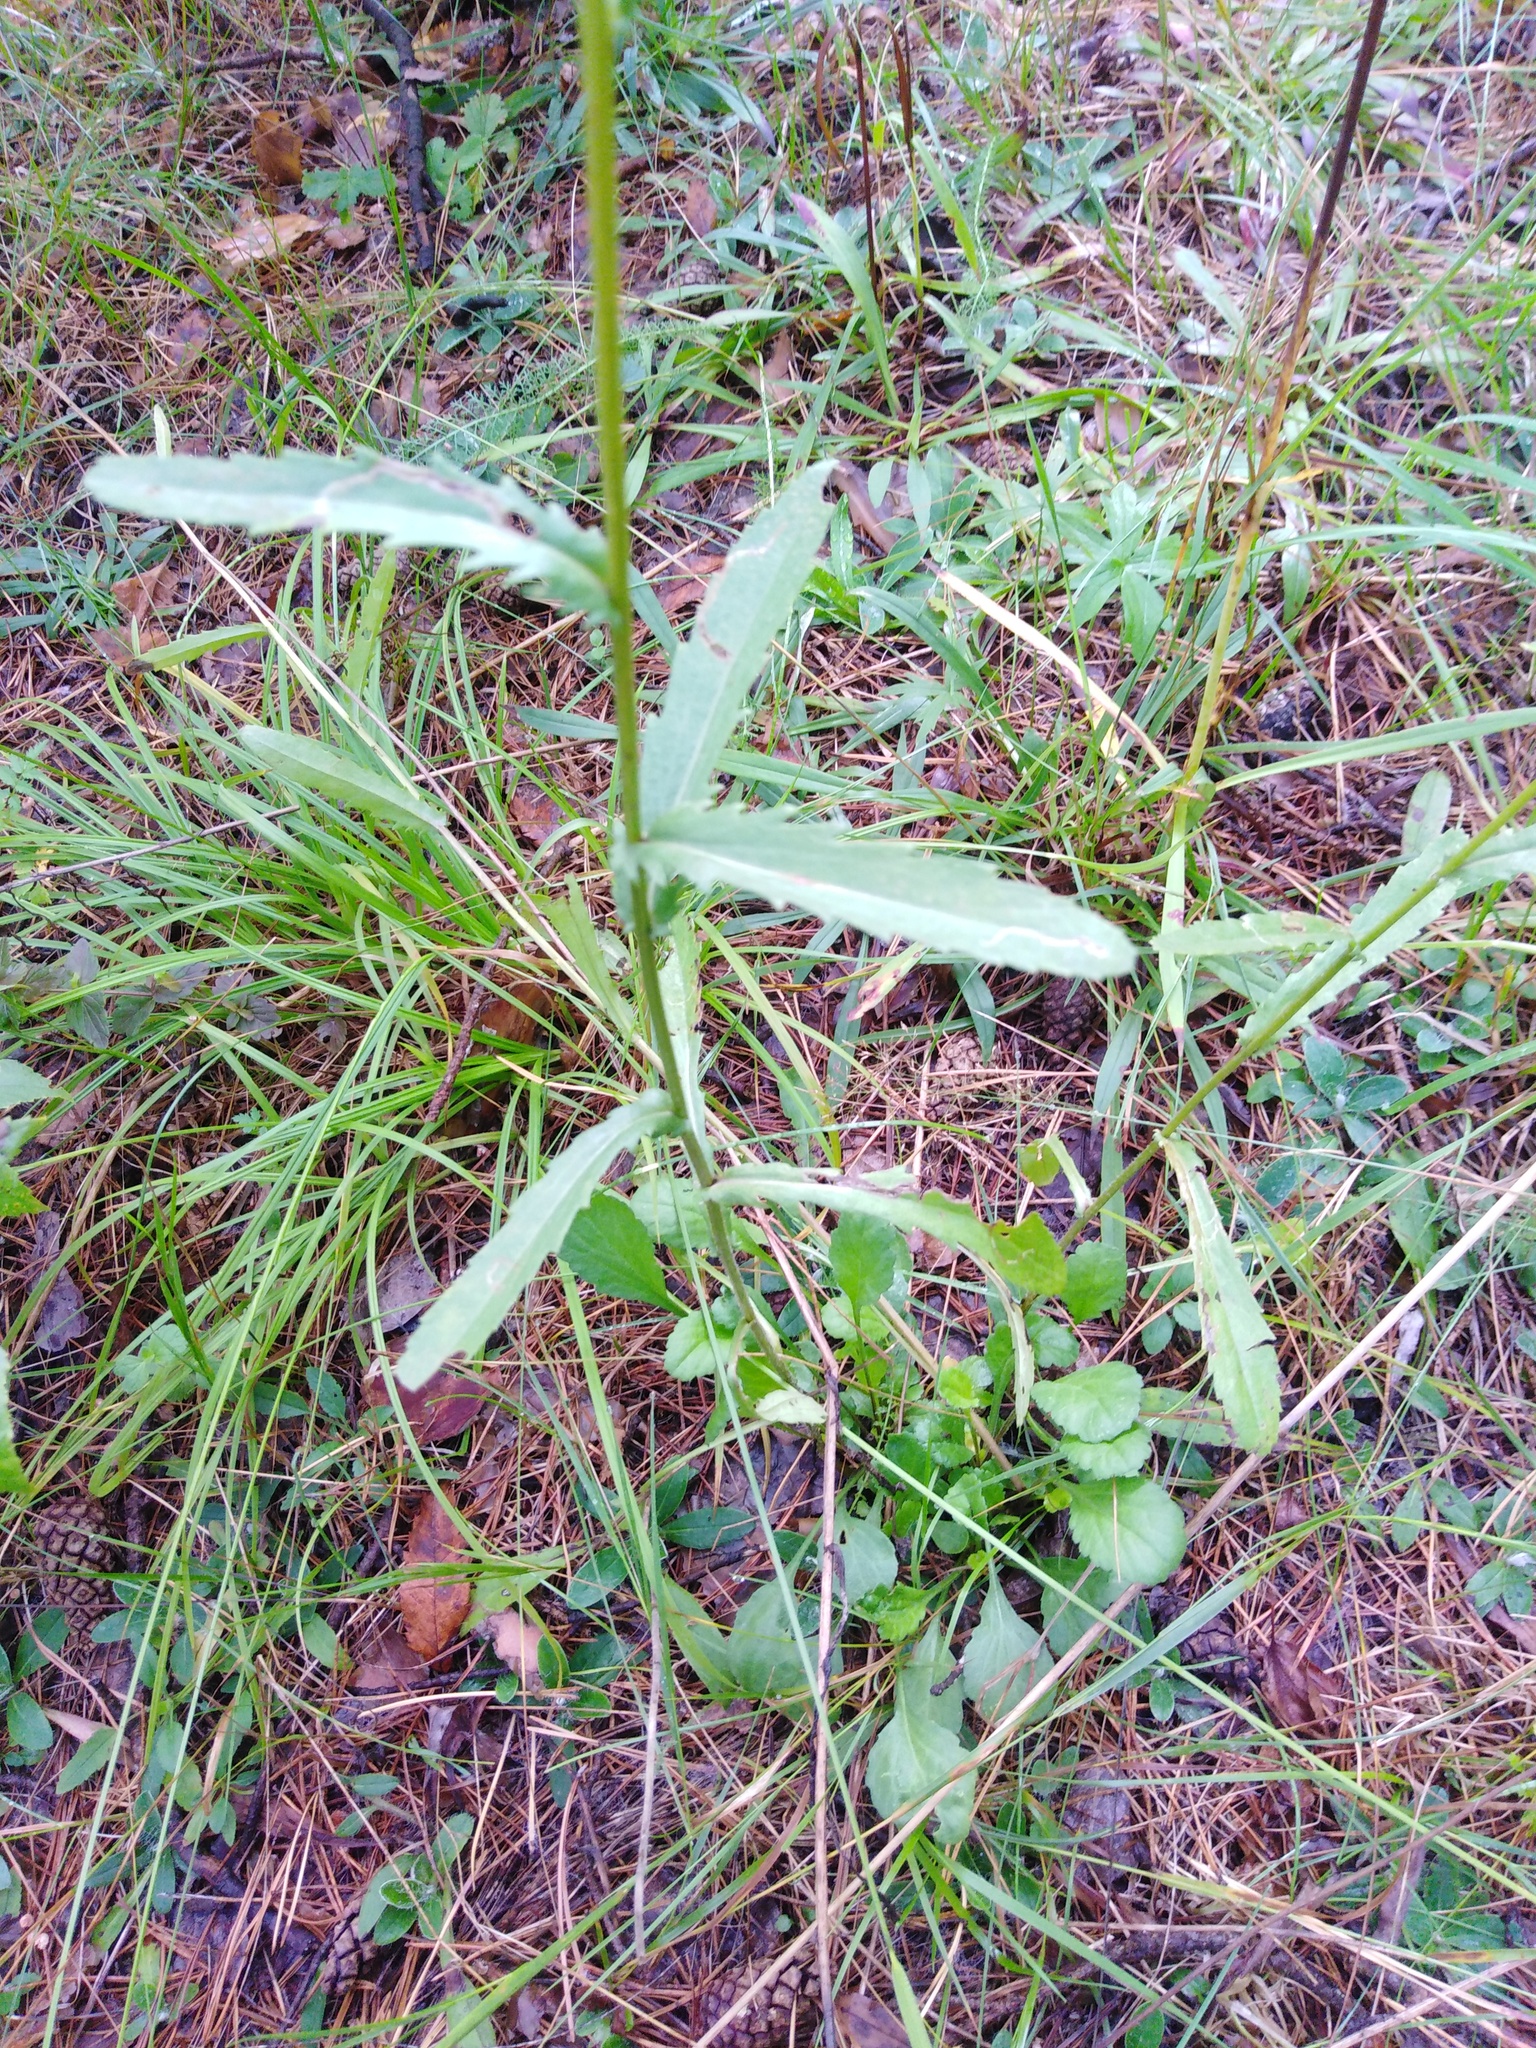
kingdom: Plantae
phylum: Tracheophyta
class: Magnoliopsida
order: Asterales
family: Asteraceae
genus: Leucanthemum
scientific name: Leucanthemum ircutianum
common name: Daisy
